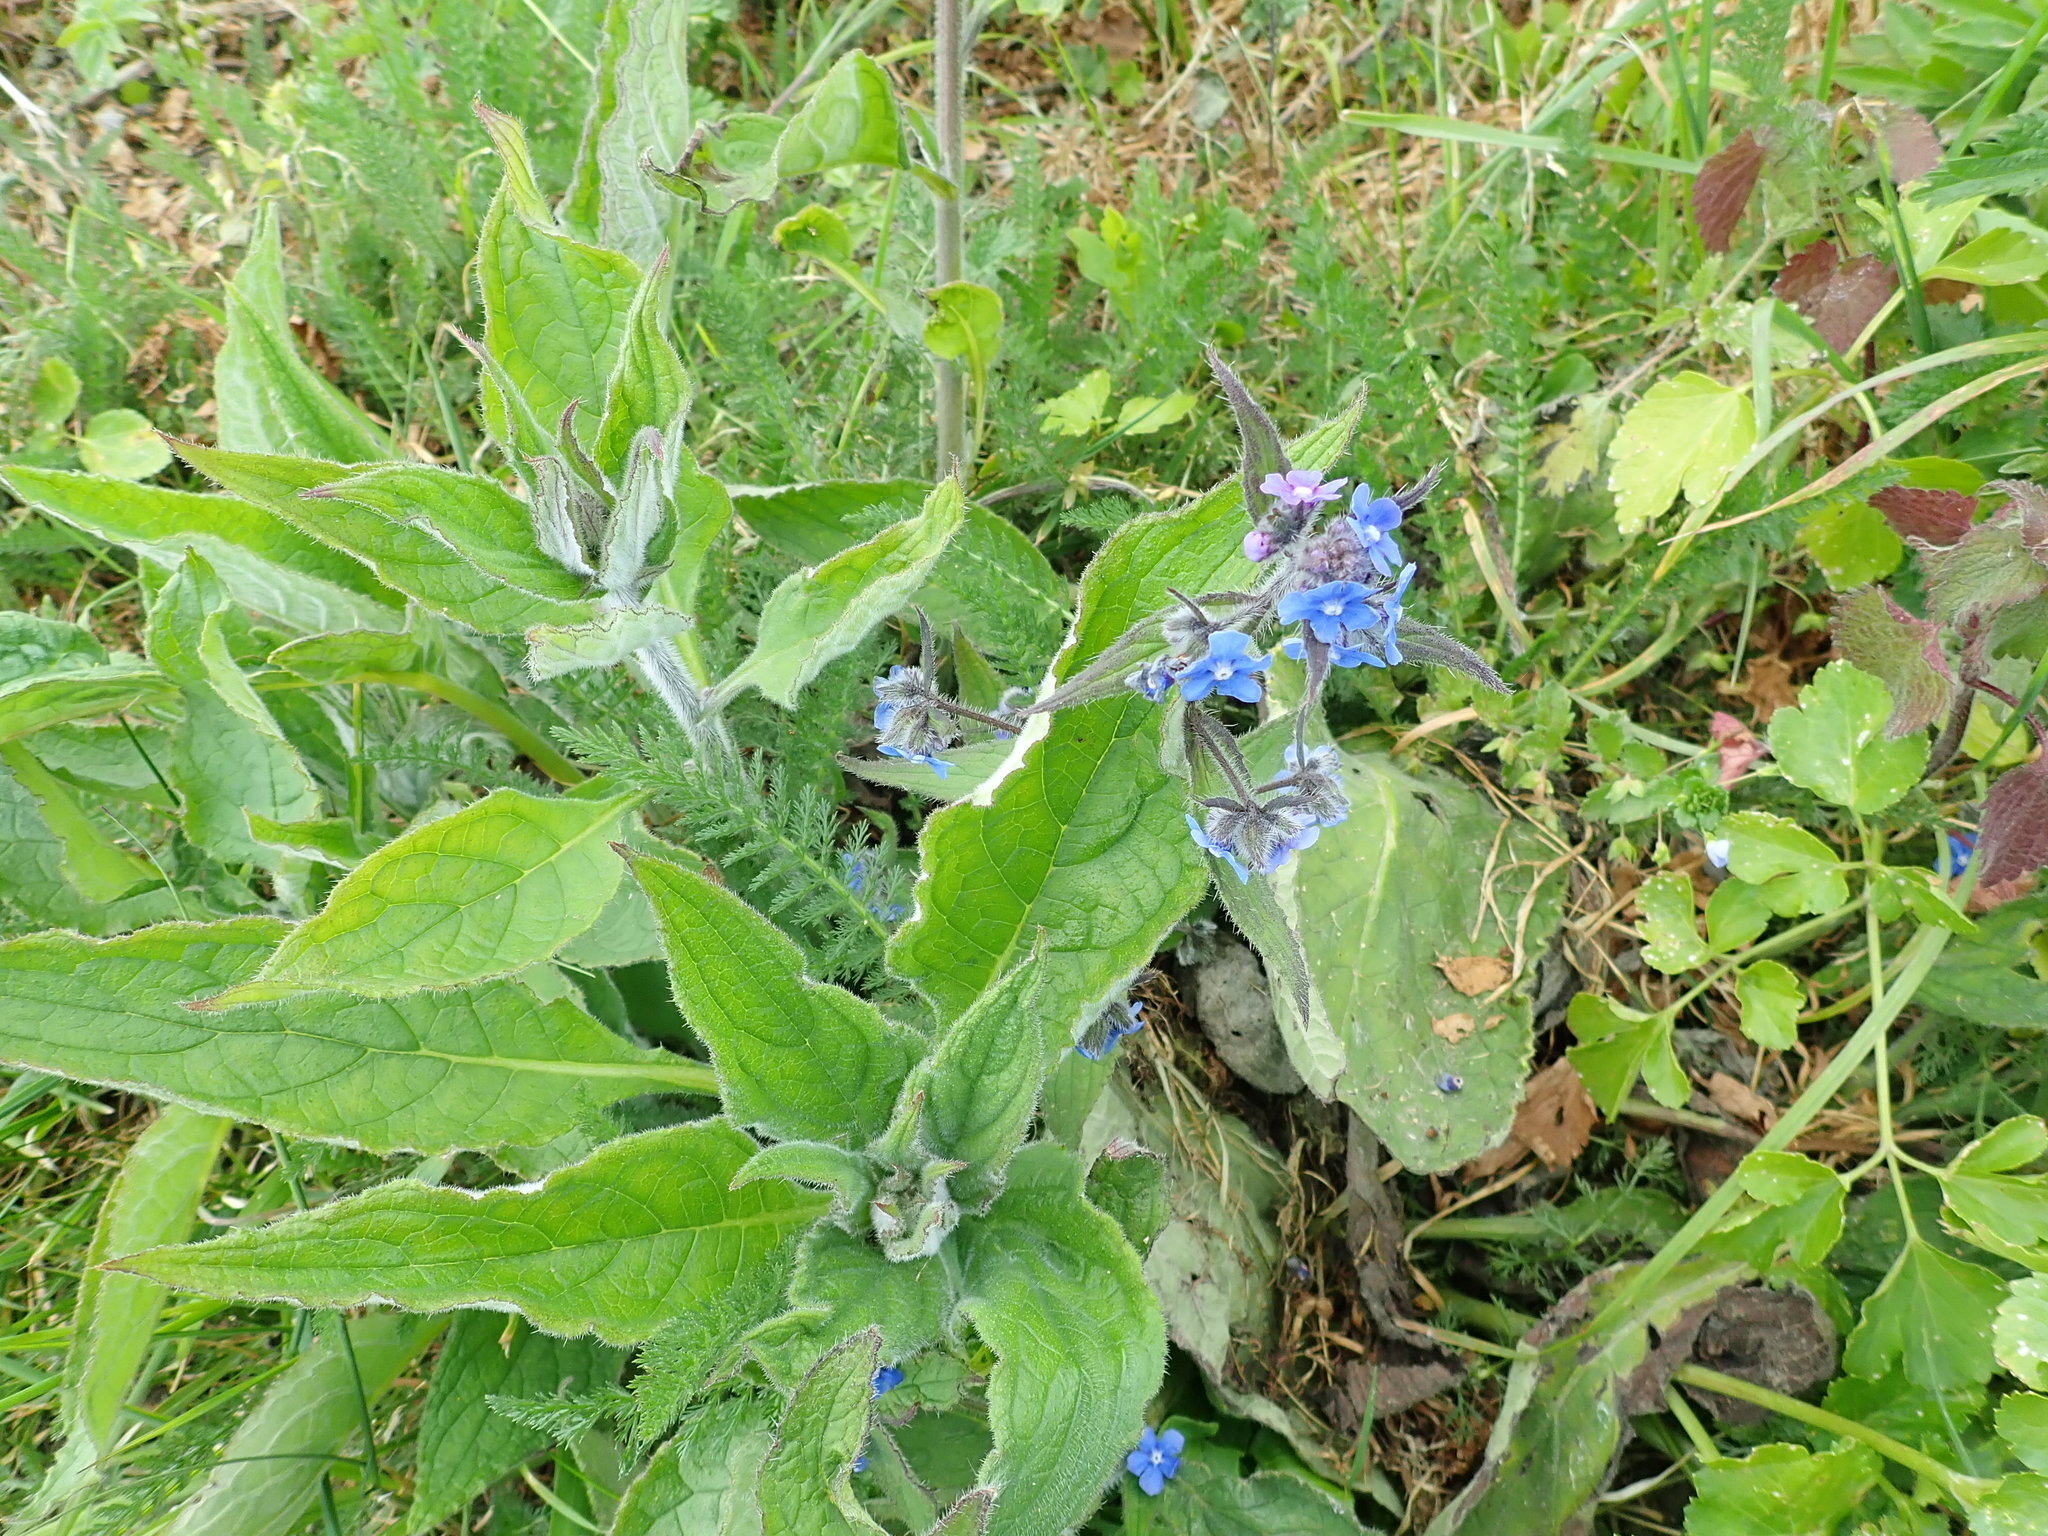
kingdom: Plantae
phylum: Tracheophyta
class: Magnoliopsida
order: Boraginales
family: Boraginaceae
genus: Pentaglottis
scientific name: Pentaglottis sempervirens
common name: Green alkanet
